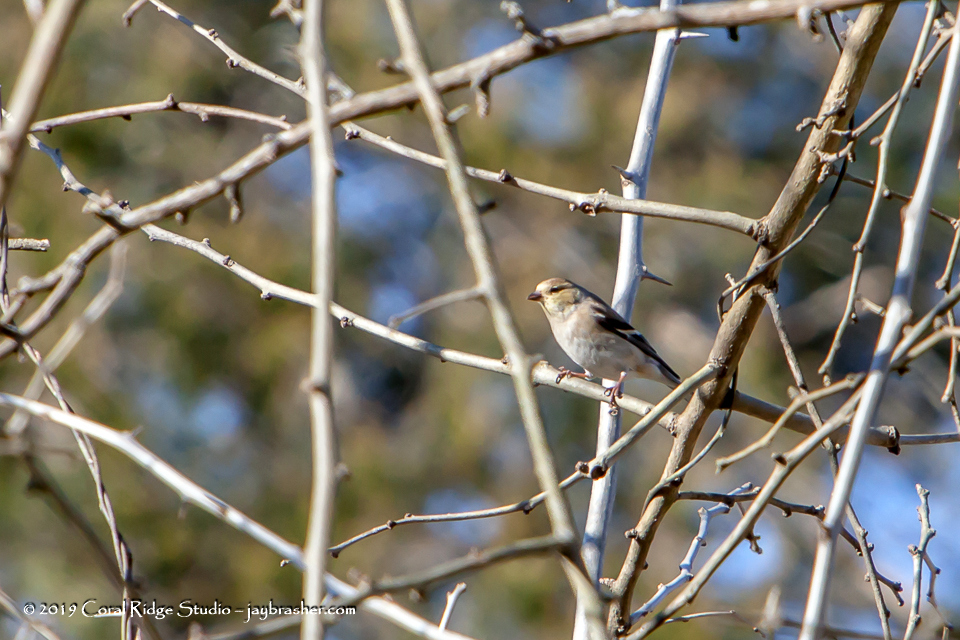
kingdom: Animalia
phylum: Chordata
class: Aves
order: Passeriformes
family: Fringillidae
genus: Spinus
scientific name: Spinus tristis
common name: American goldfinch
